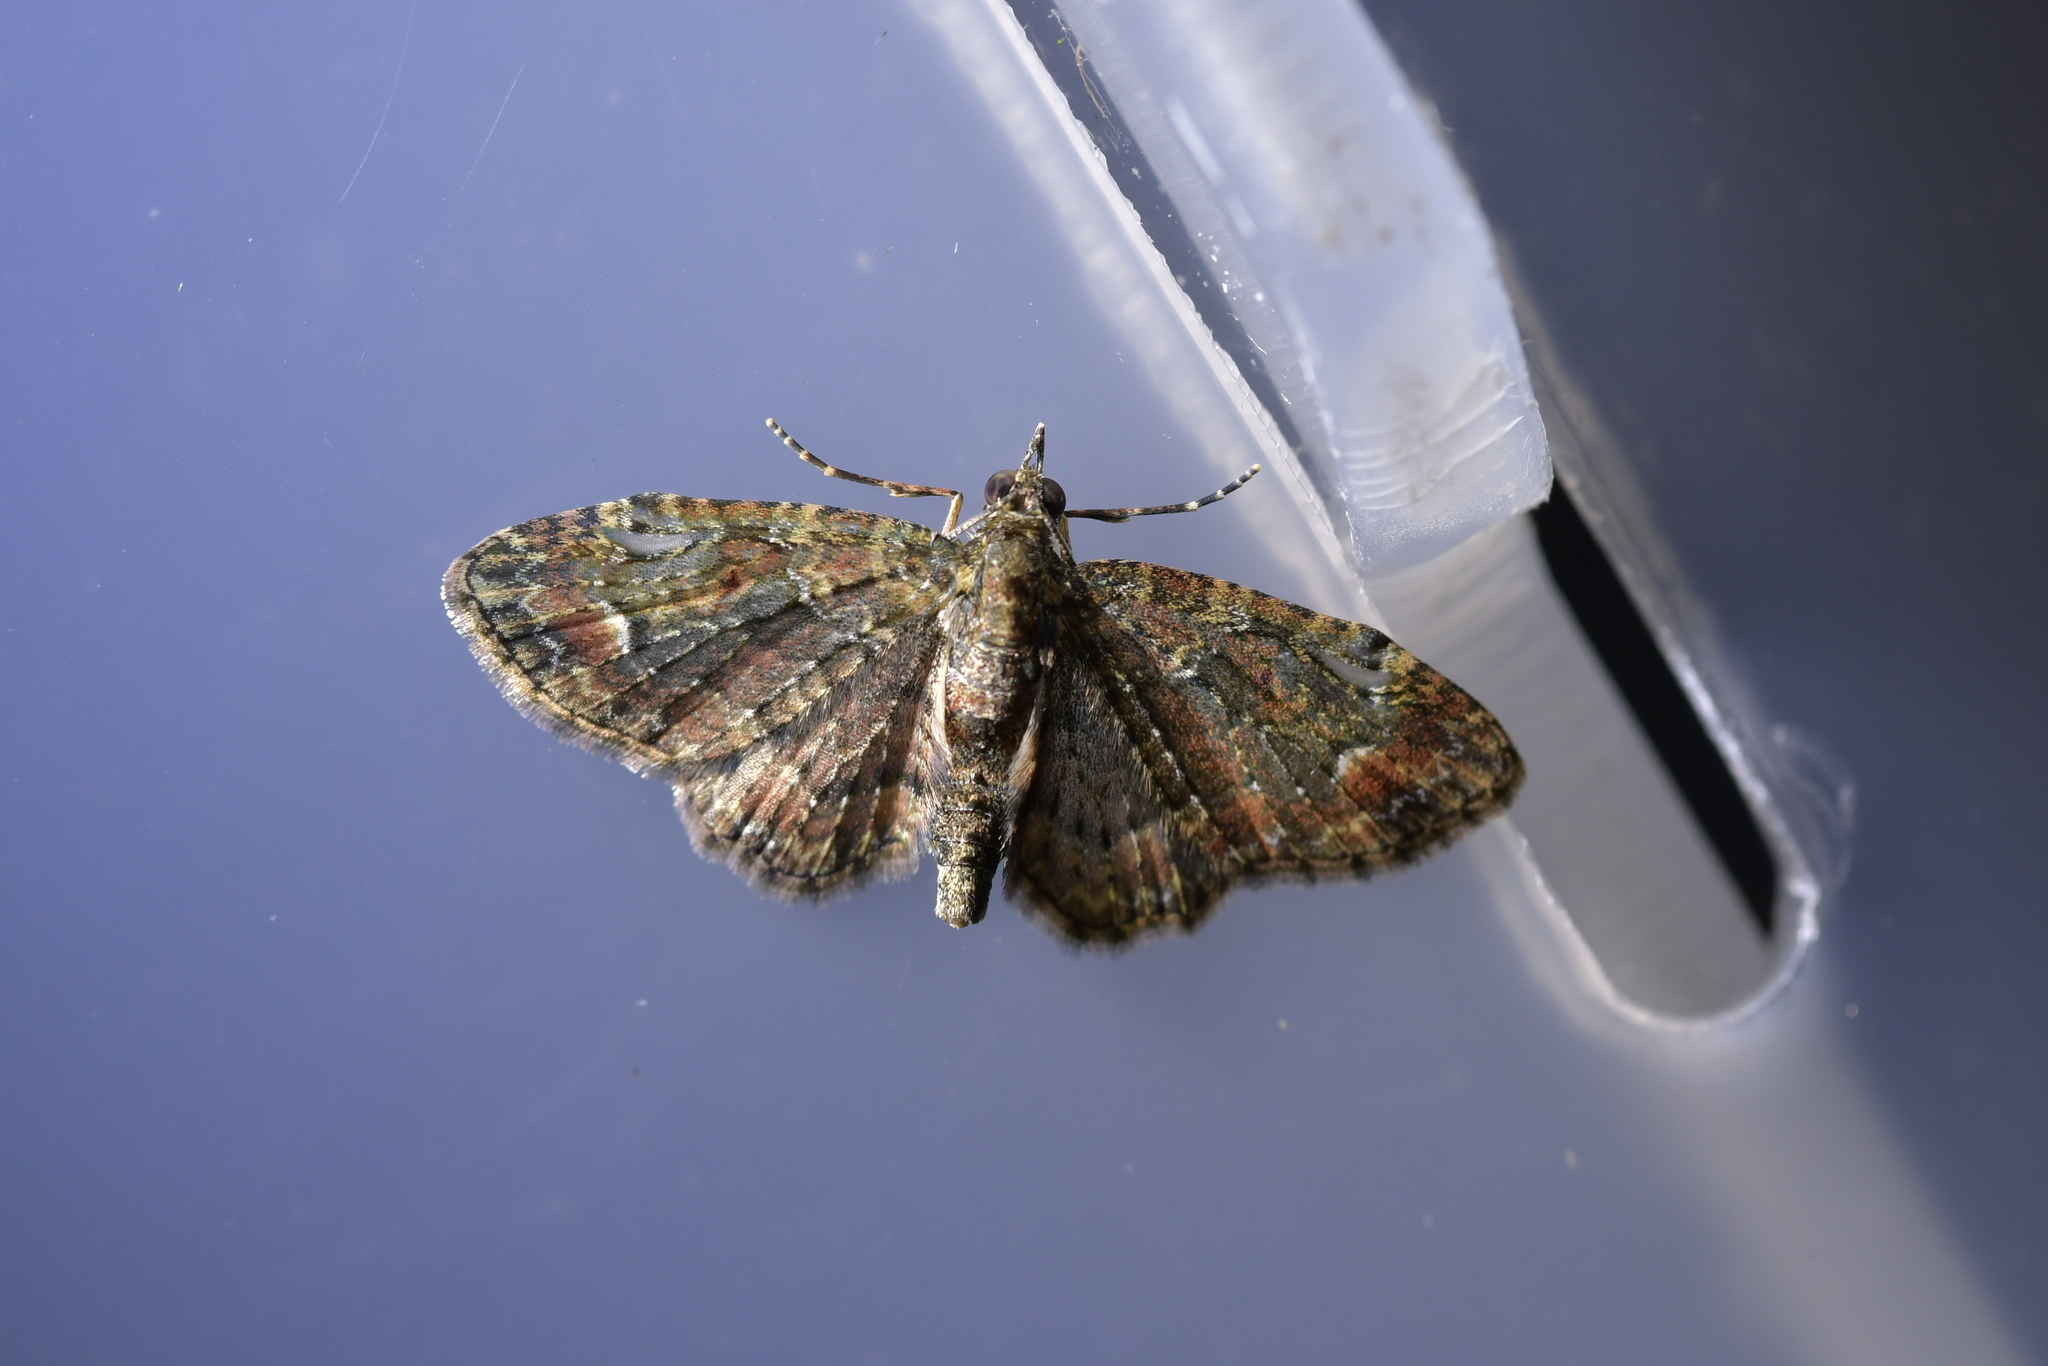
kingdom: Animalia
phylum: Arthropoda
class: Insecta
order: Lepidoptera
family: Geometridae
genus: Pasiphilodes
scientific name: Pasiphilodes testulata
